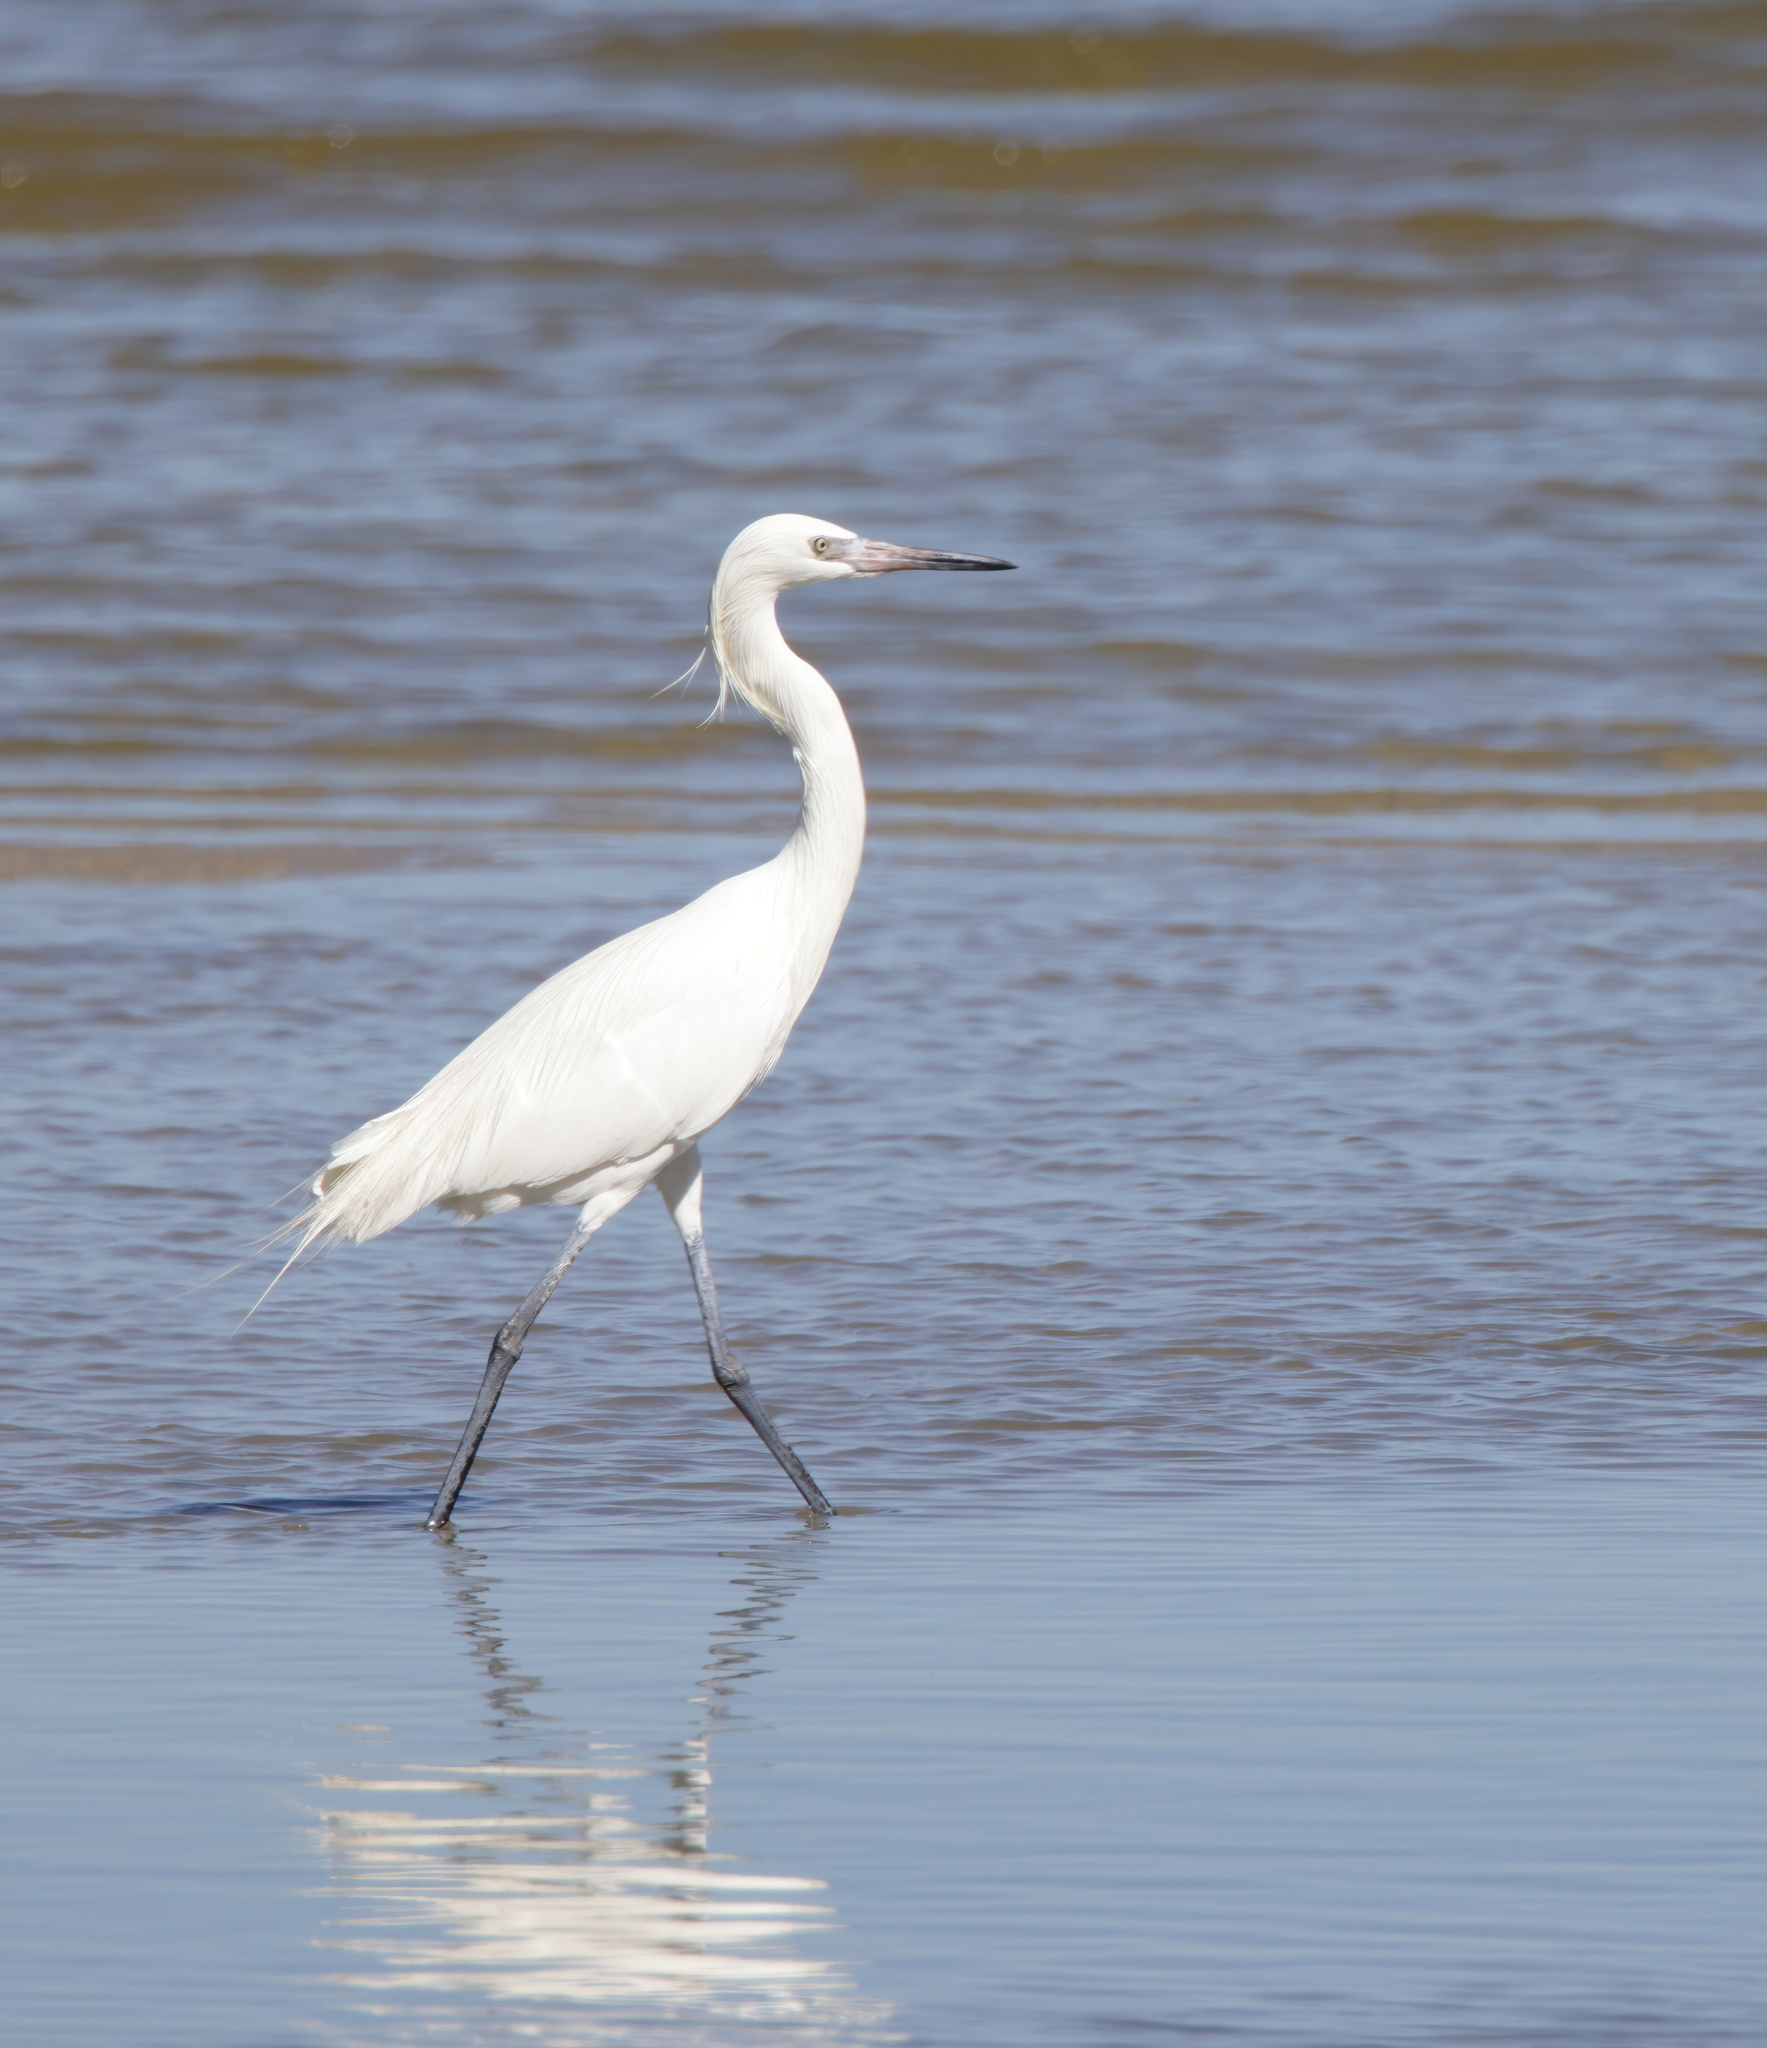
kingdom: Animalia
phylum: Chordata
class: Aves
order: Pelecaniformes
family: Ardeidae
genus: Egretta
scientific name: Egretta rufescens
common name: Reddish egret
